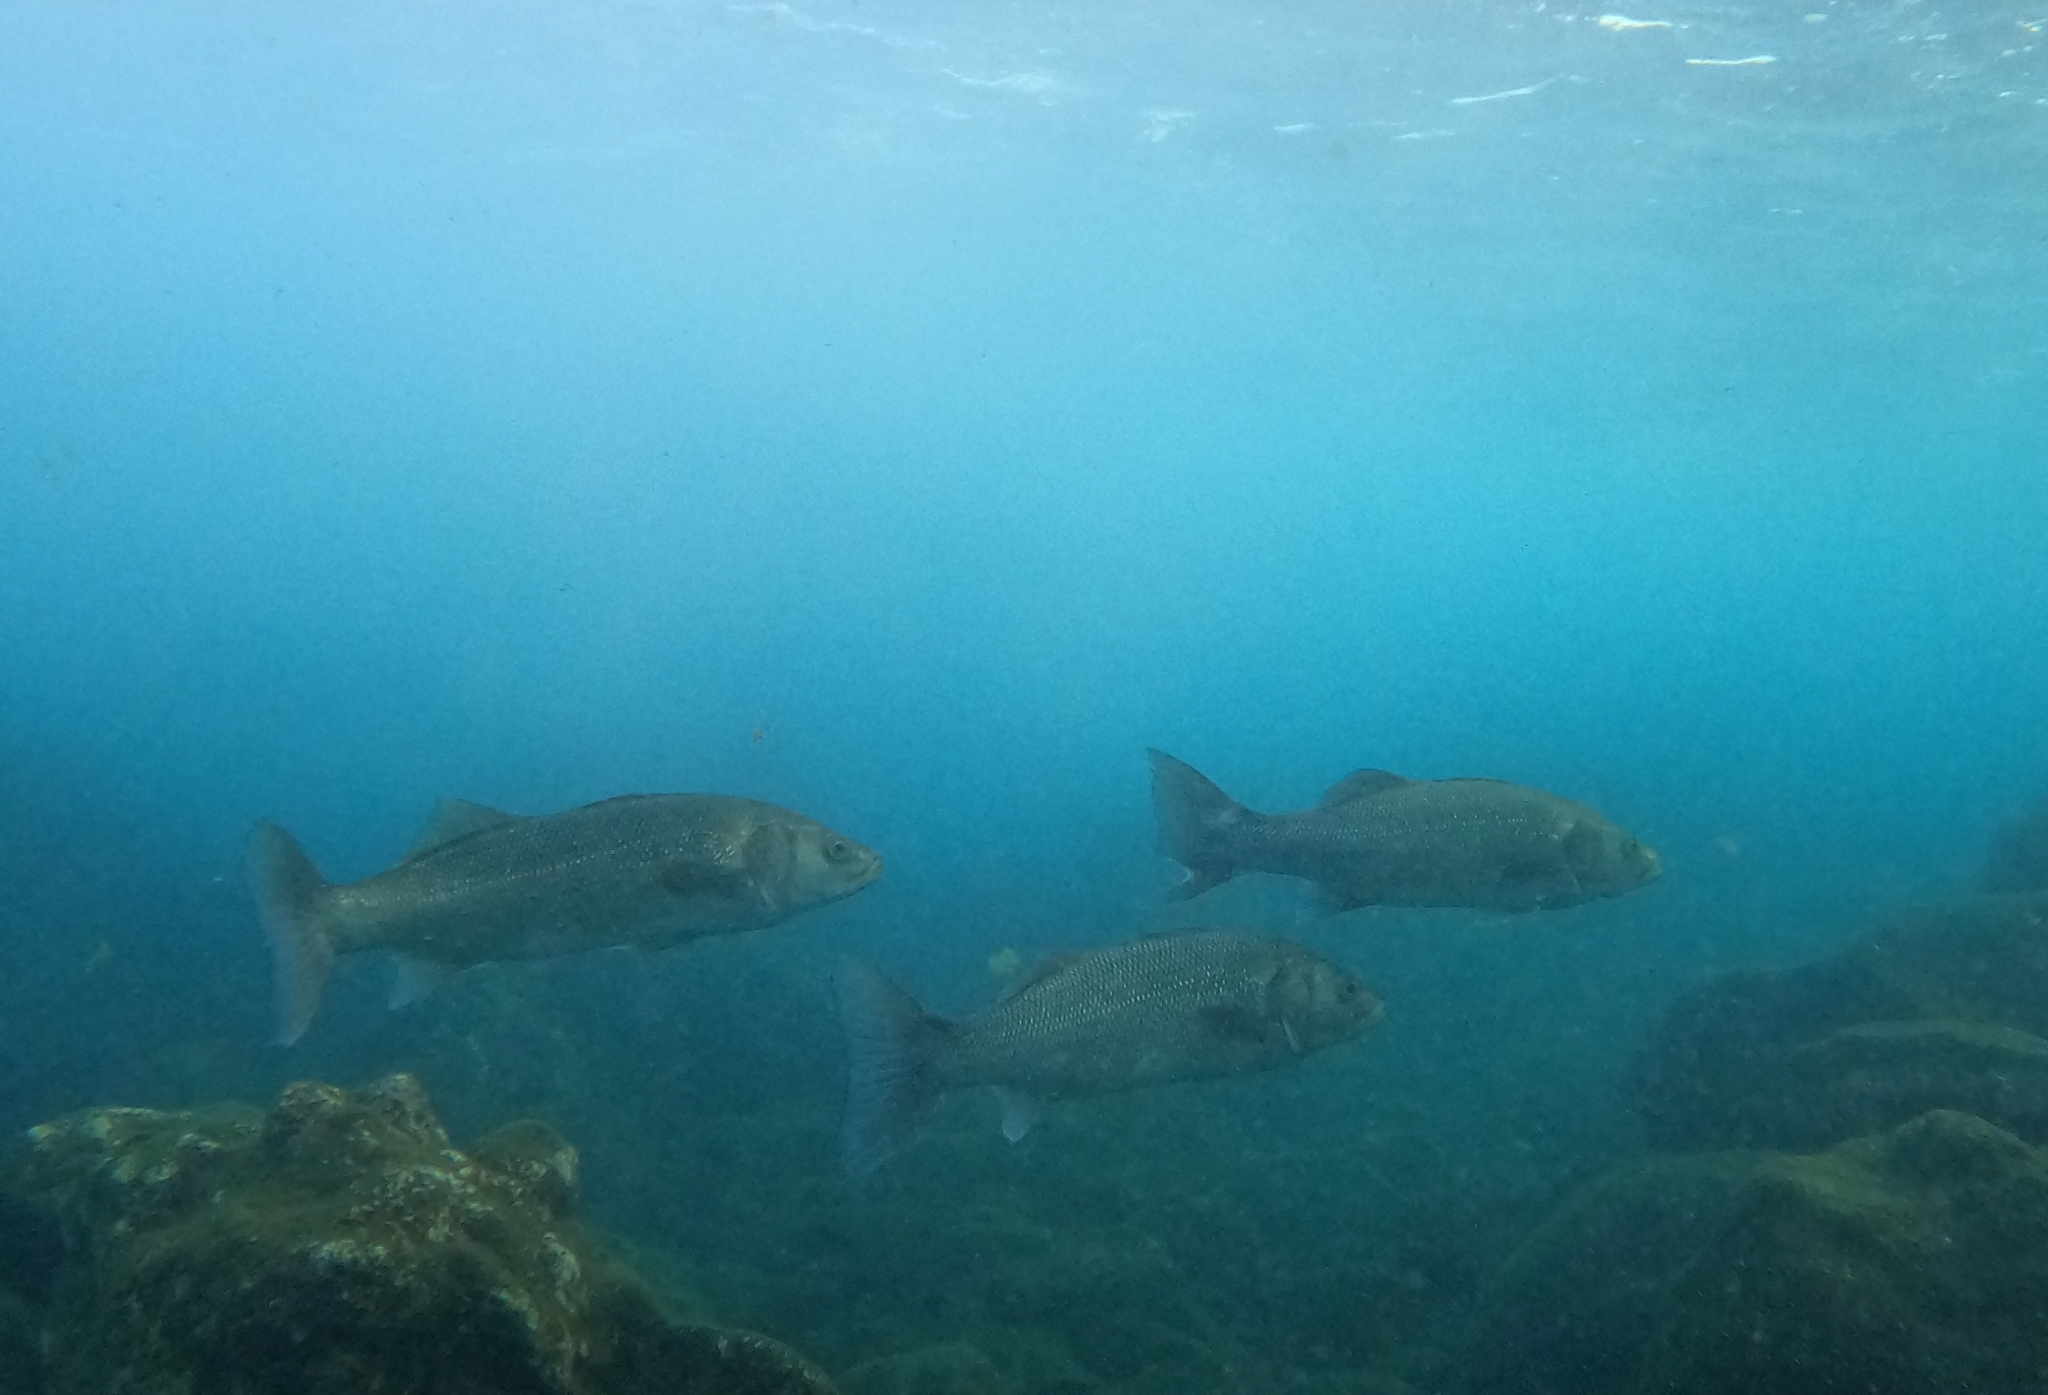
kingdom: Animalia
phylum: Chordata
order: Perciformes
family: Moronidae
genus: Dicentrarchus
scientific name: Dicentrarchus labrax
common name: European seabass
